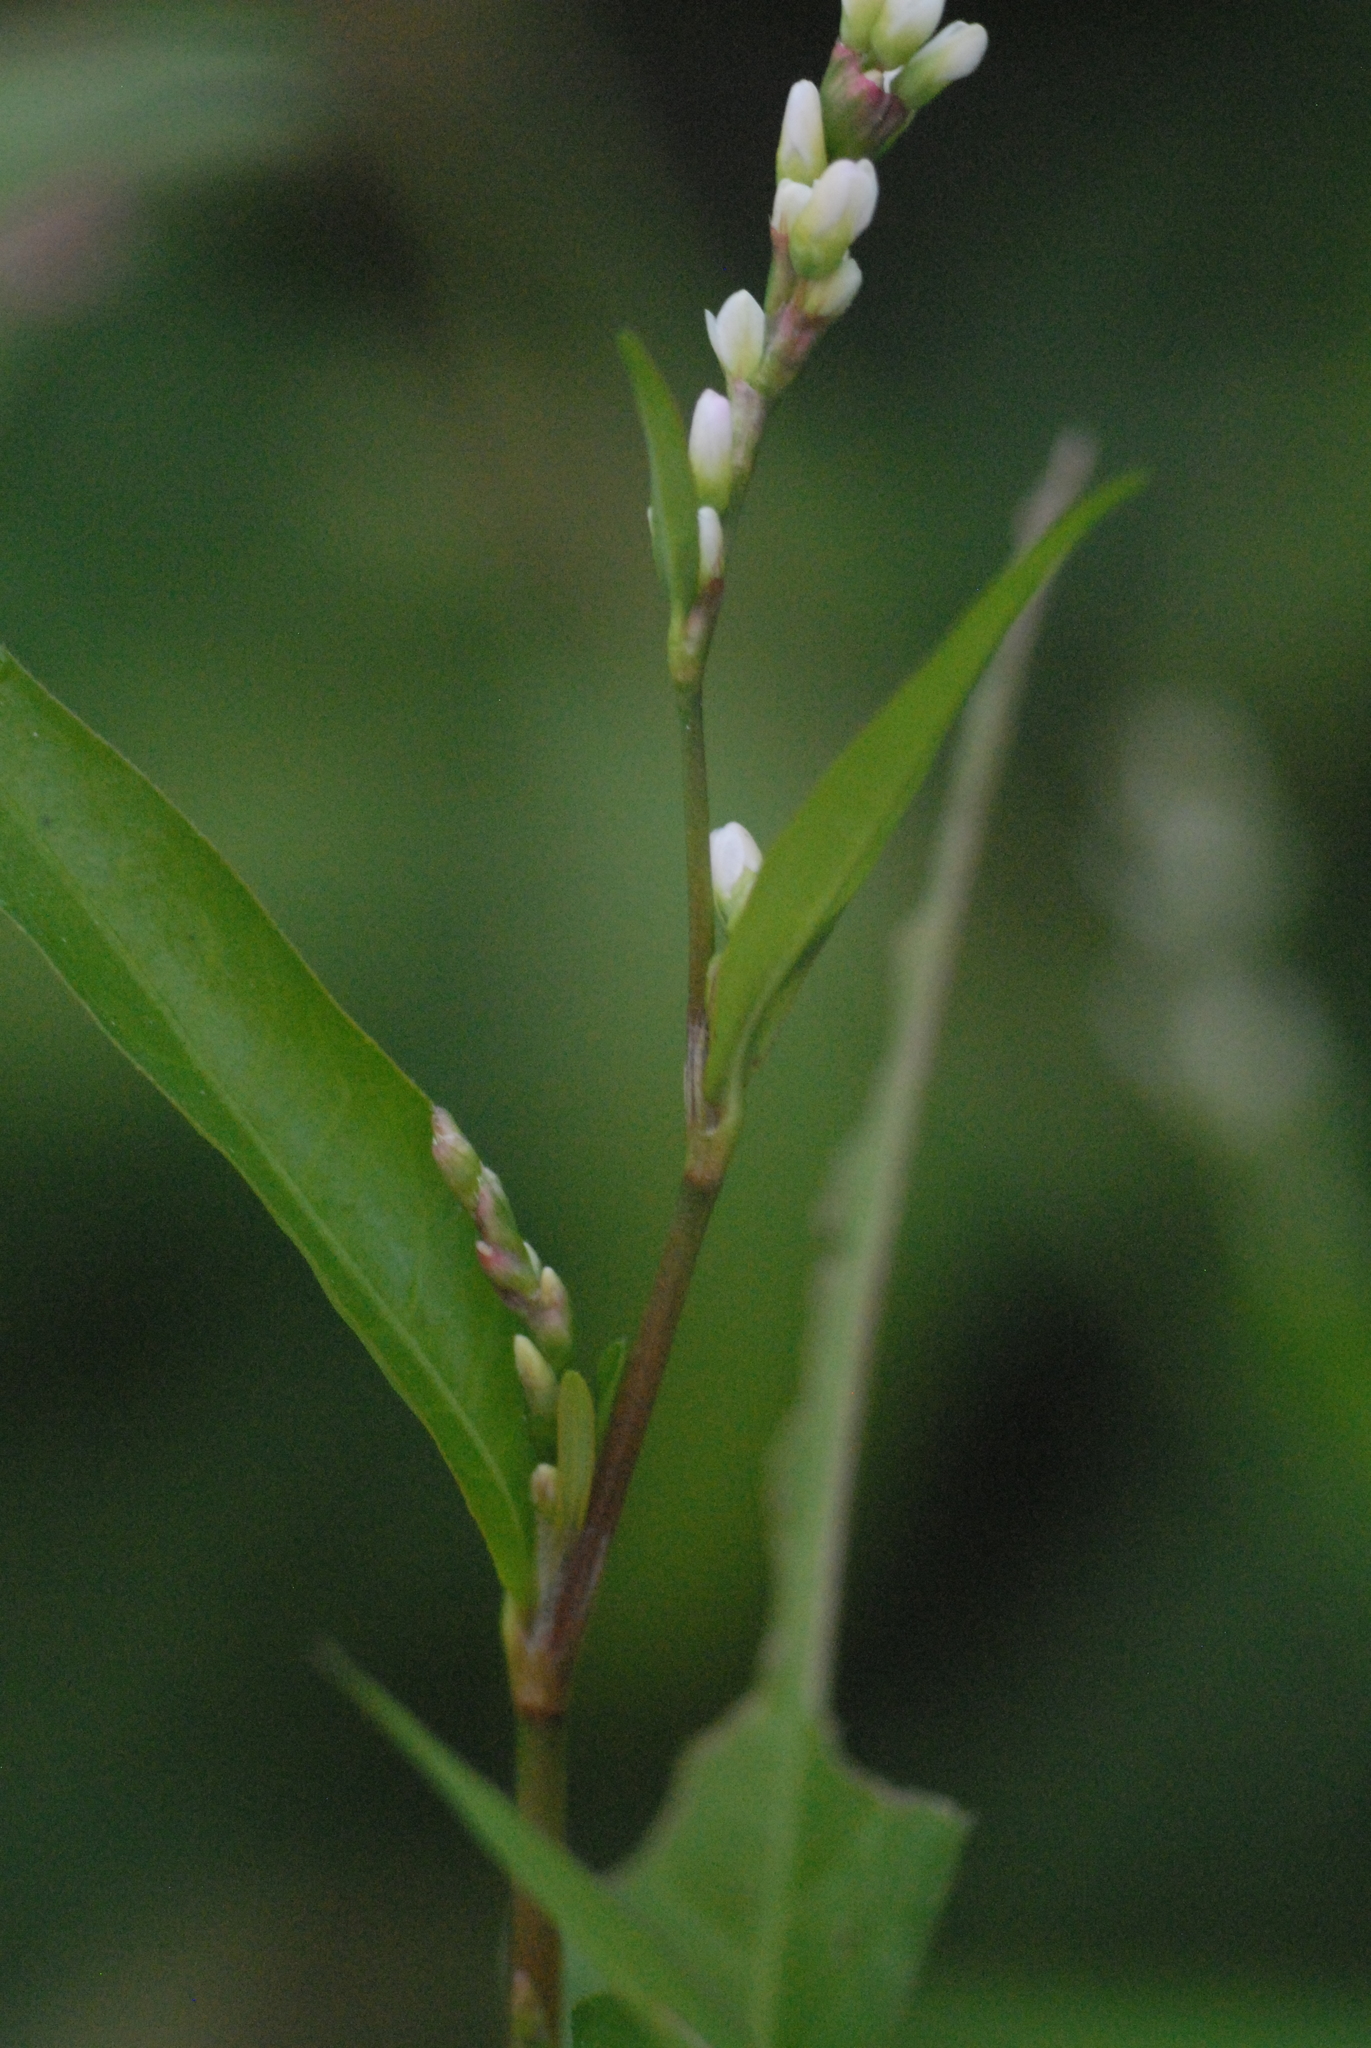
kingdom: Plantae
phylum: Tracheophyta
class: Magnoliopsida
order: Caryophyllales
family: Polygonaceae
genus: Persicaria
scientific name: Persicaria hydropiper
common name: Water-pepper
